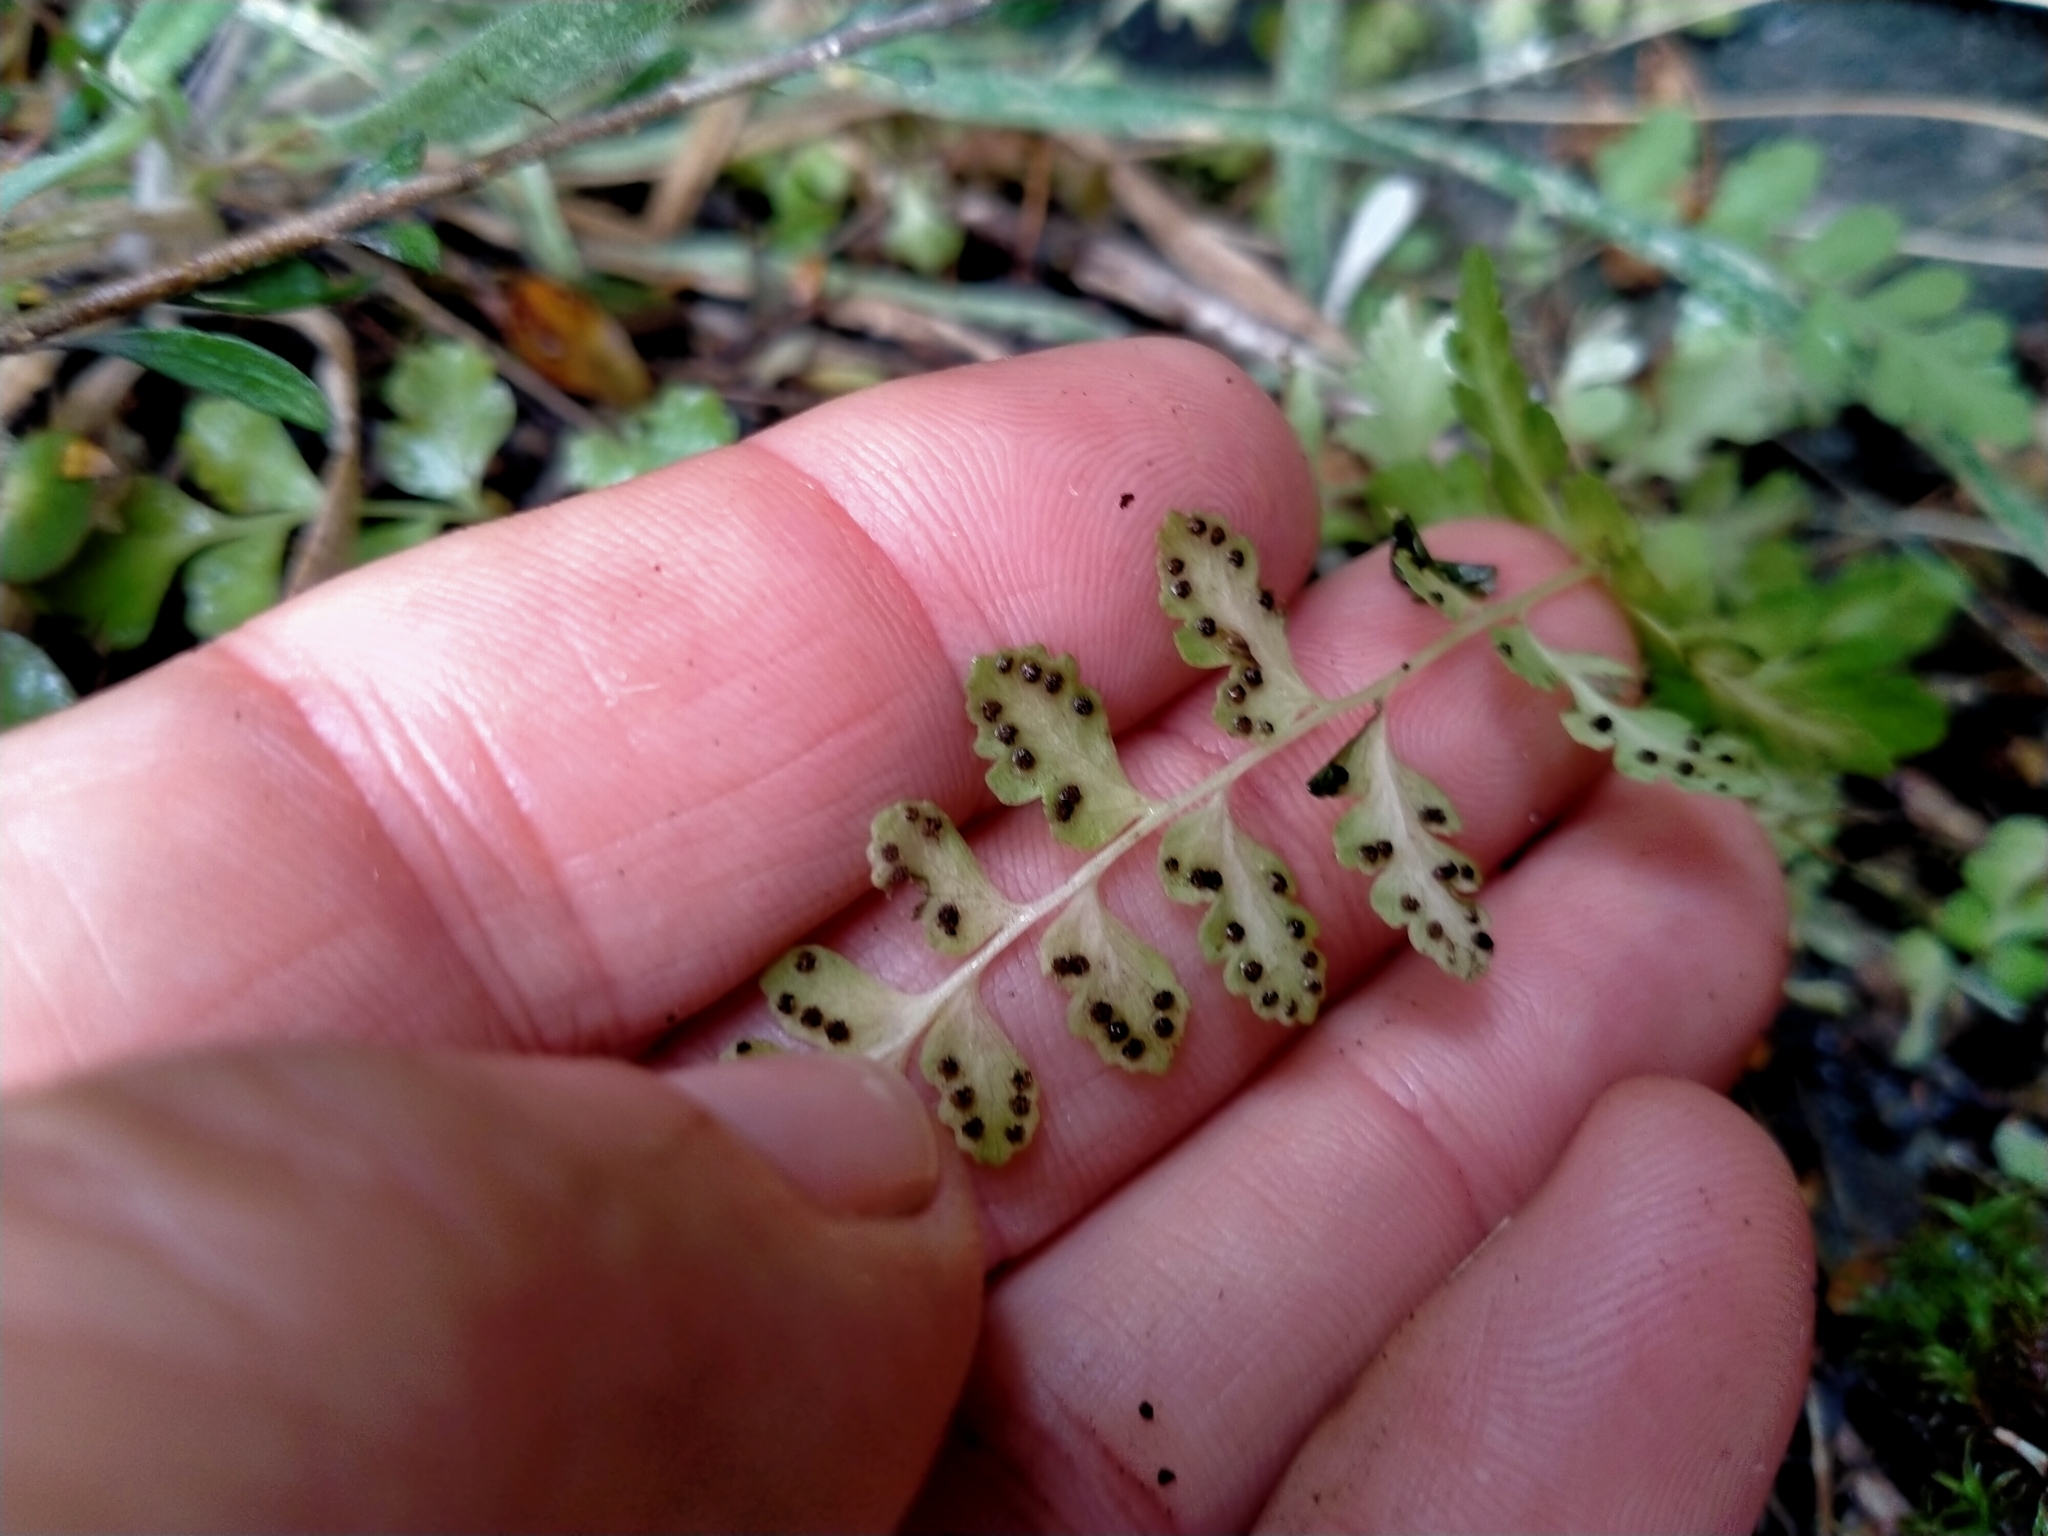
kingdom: Plantae
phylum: Tracheophyta
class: Polypodiopsida
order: Polypodiales
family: Cystopteridaceae
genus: Cystopteris
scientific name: Cystopteris tasmanica
